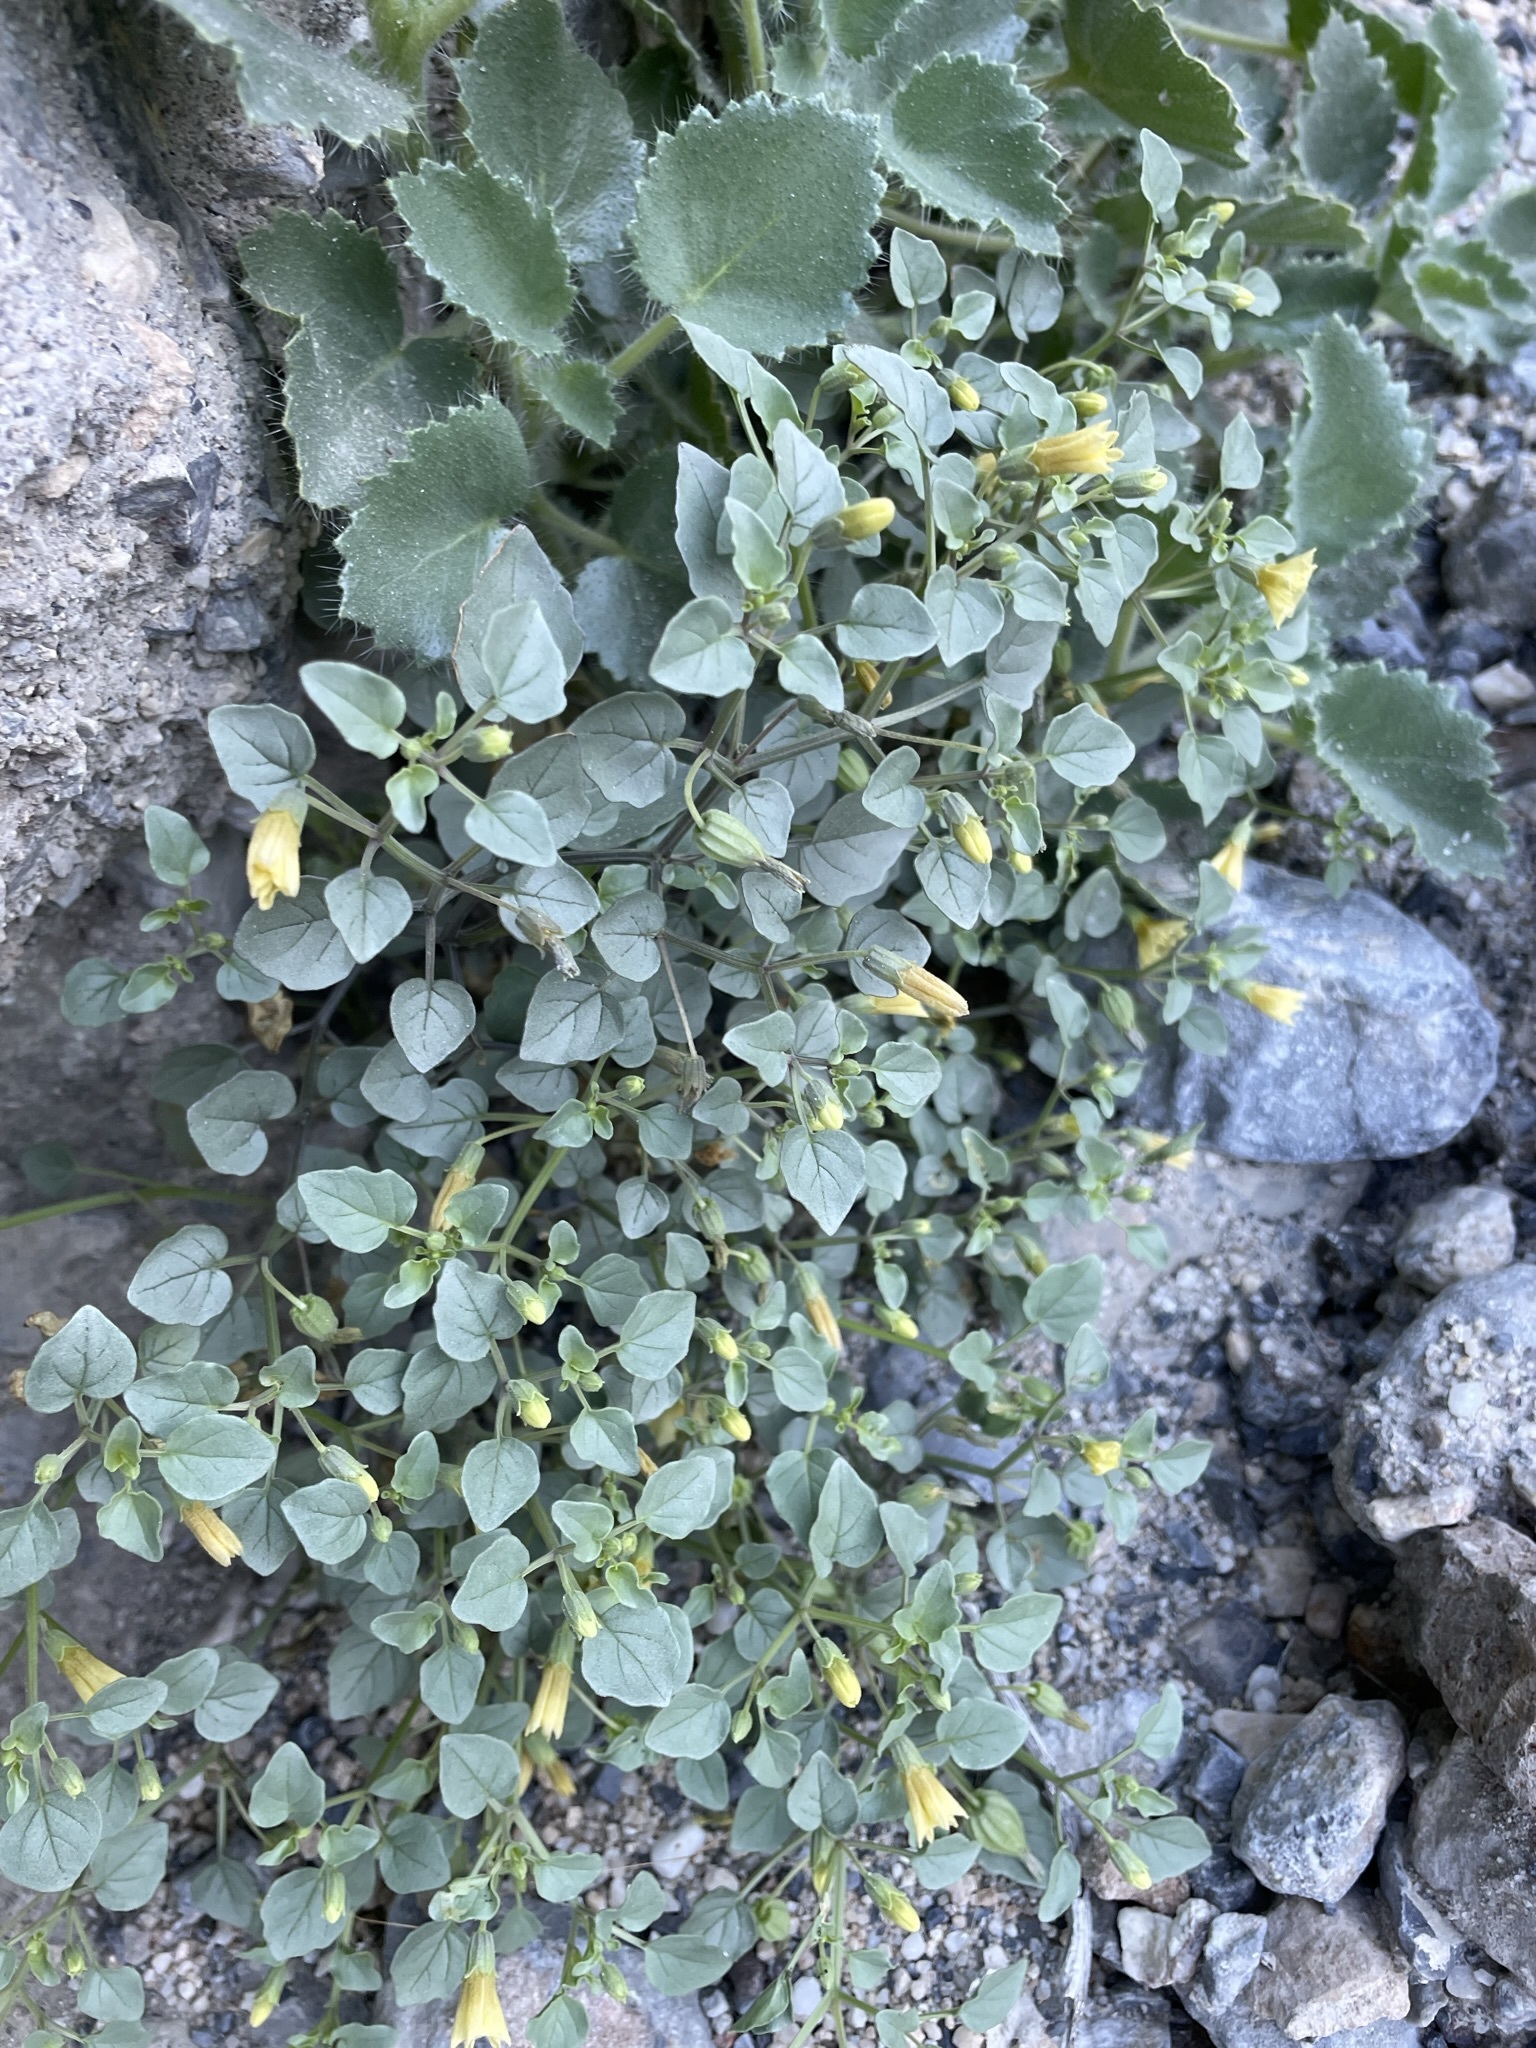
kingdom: Plantae
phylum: Tracheophyta
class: Magnoliopsida
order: Solanales
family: Solanaceae
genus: Physalis
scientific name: Physalis crassifolia
